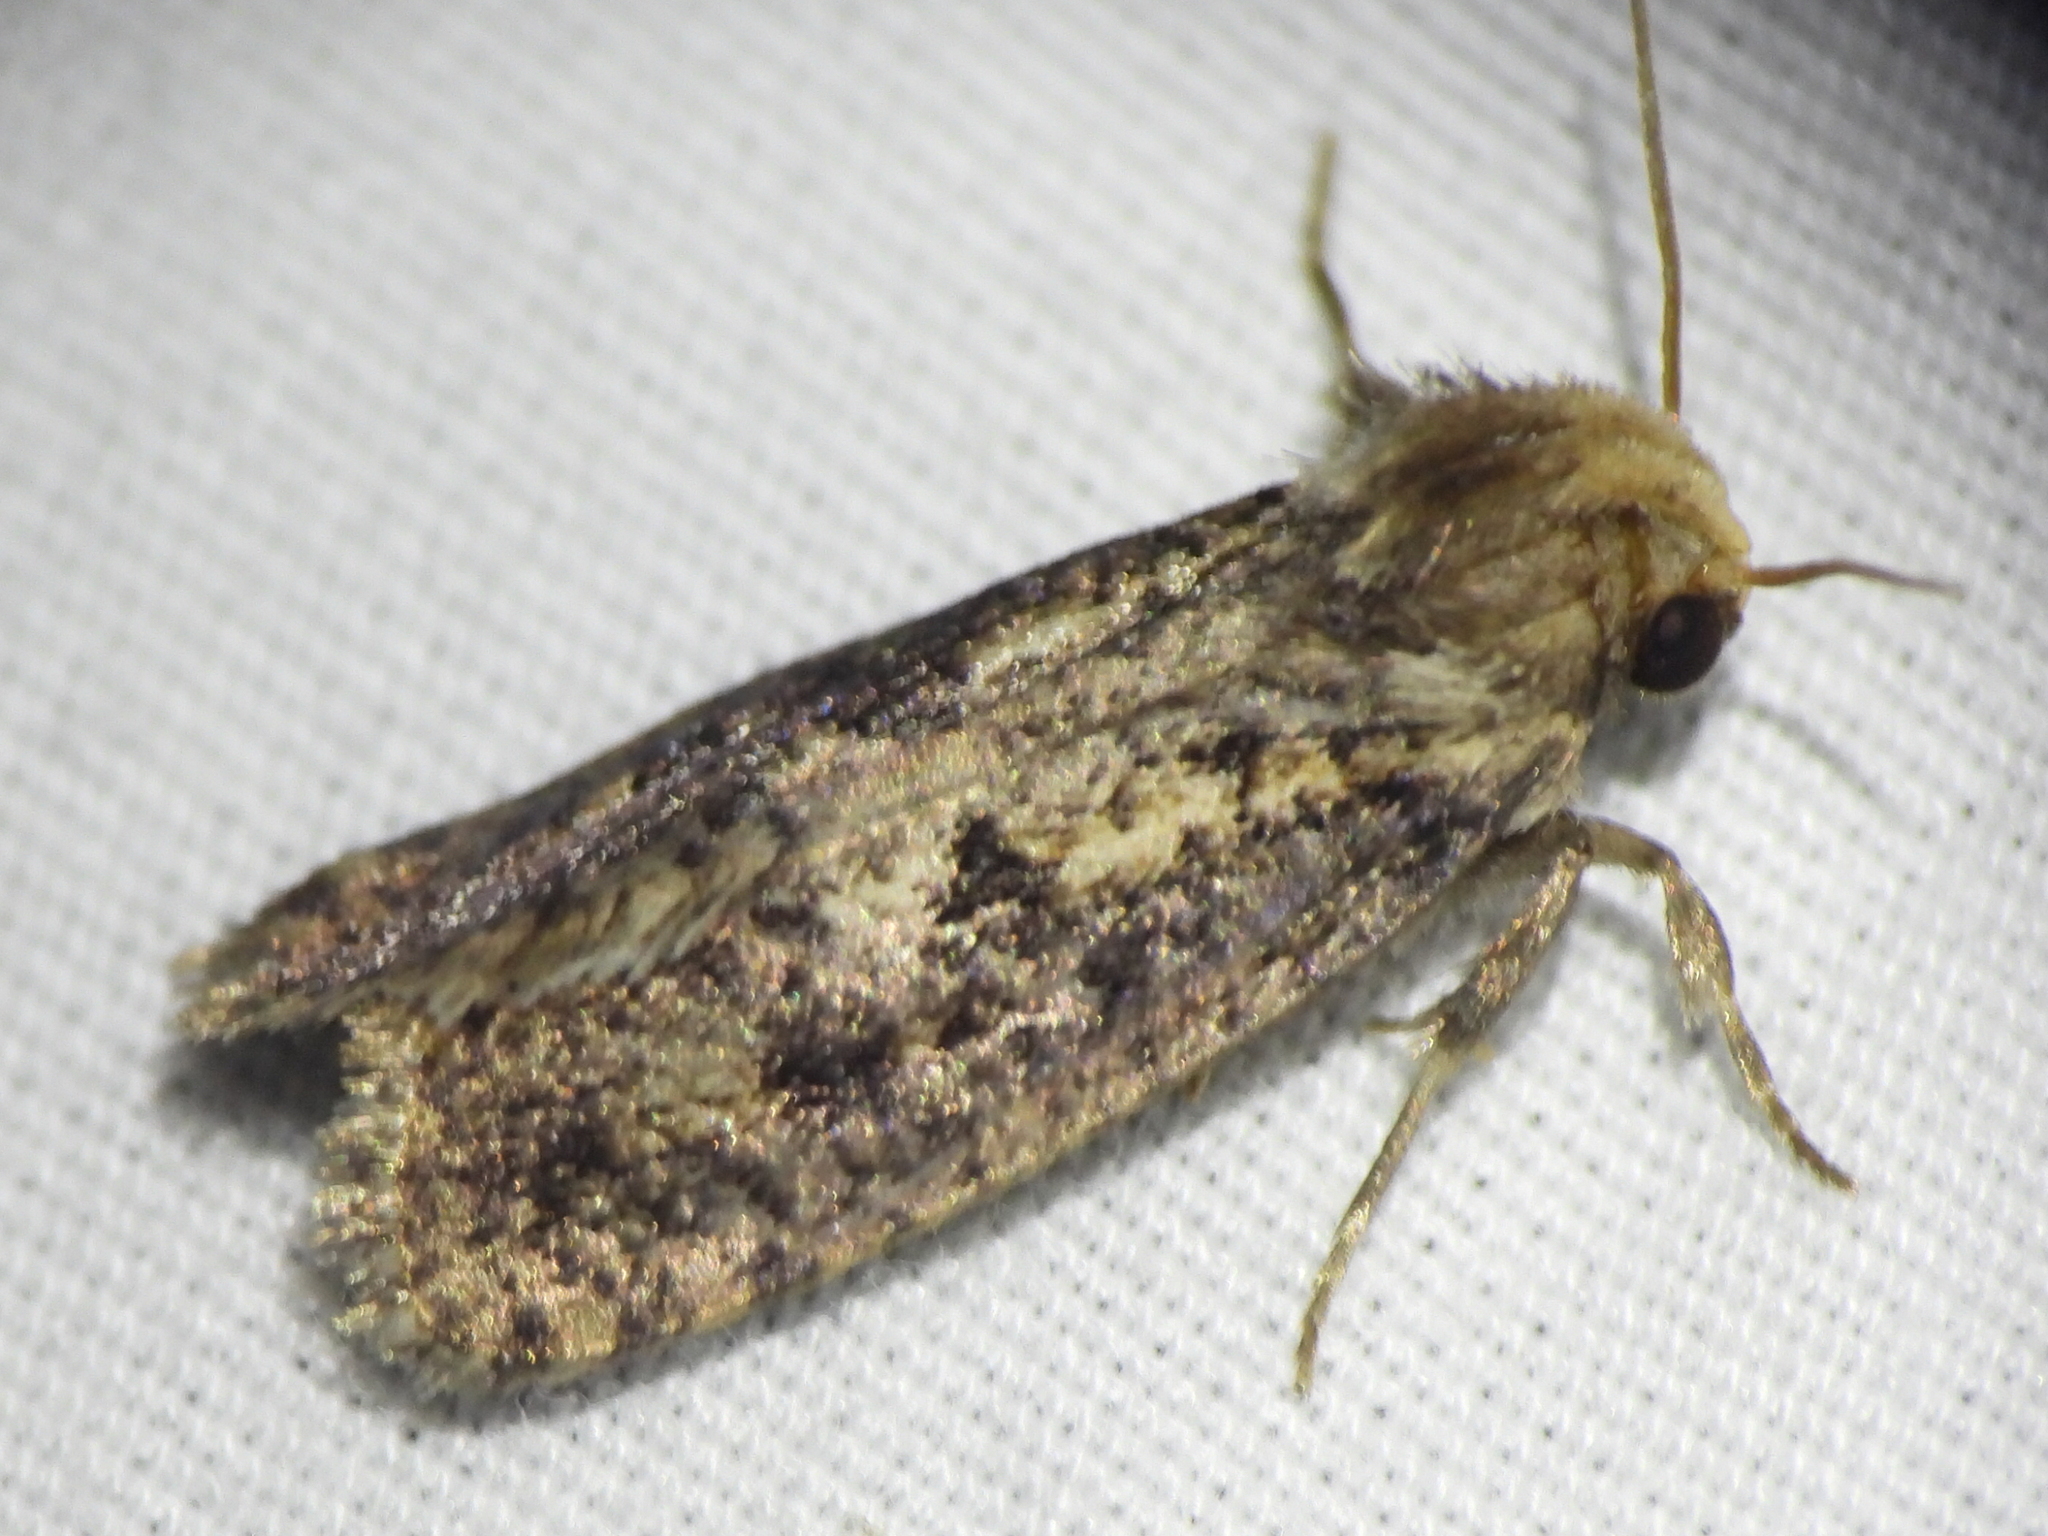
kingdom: Animalia
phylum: Arthropoda
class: Insecta
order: Lepidoptera
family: Tineidae
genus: Acrolophus
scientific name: Acrolophus popeanella
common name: Clemens' grass tubeworm moth
